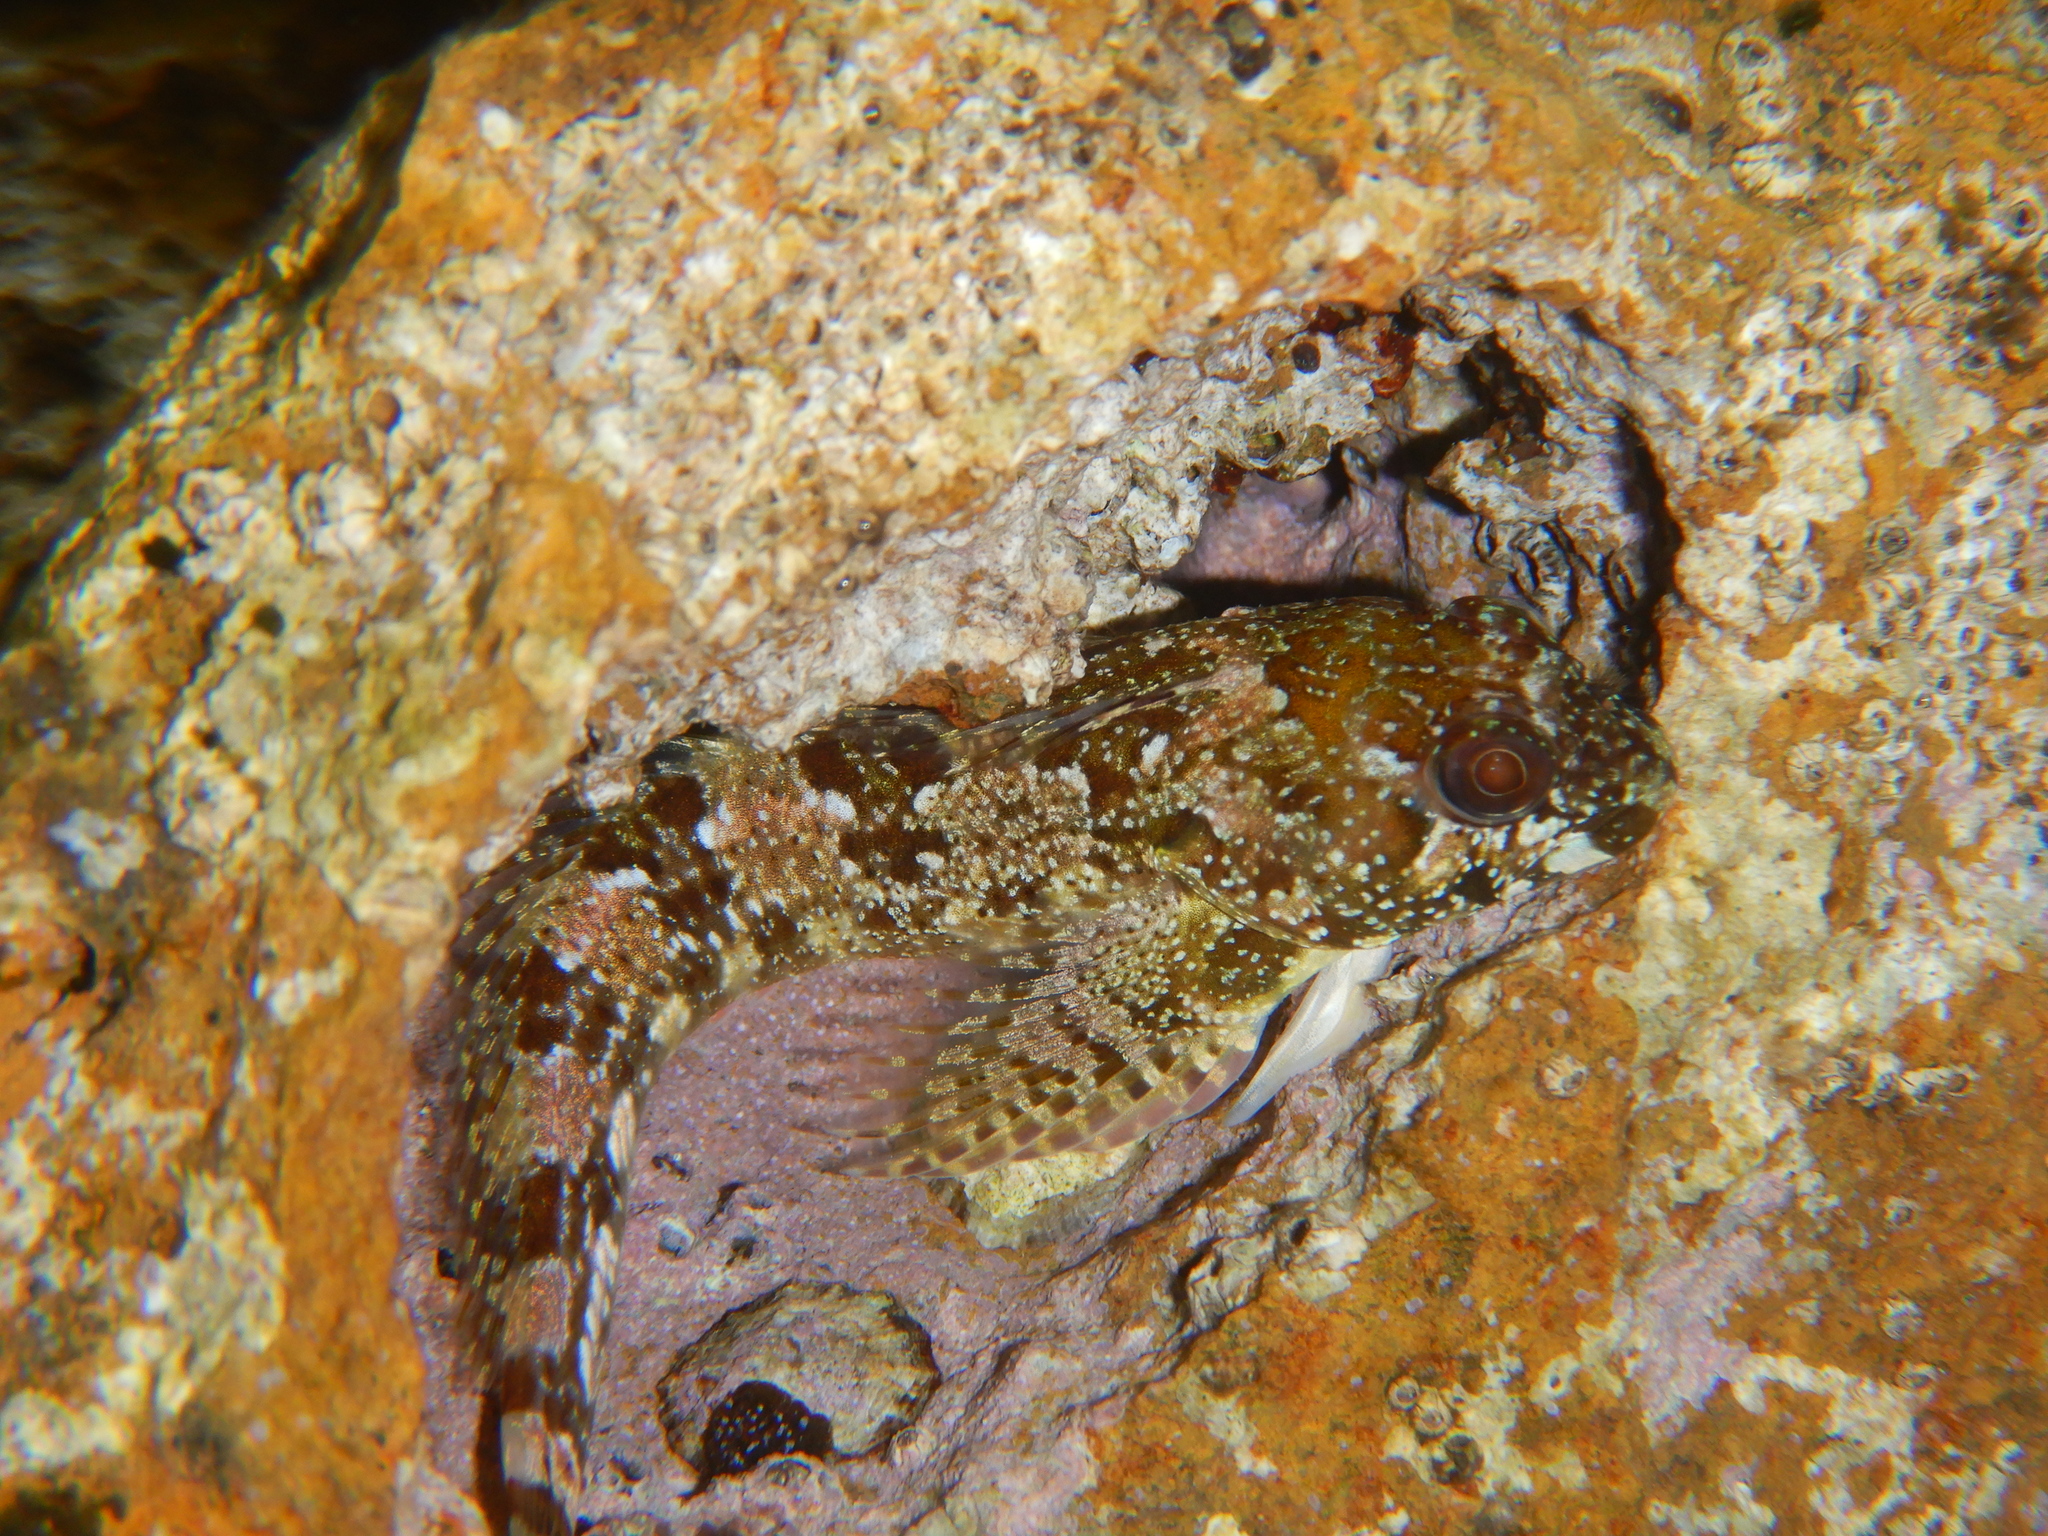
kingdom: Animalia
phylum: Chordata
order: Perciformes
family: Blenniidae
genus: Lipophrys
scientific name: Lipophrys trigloides
